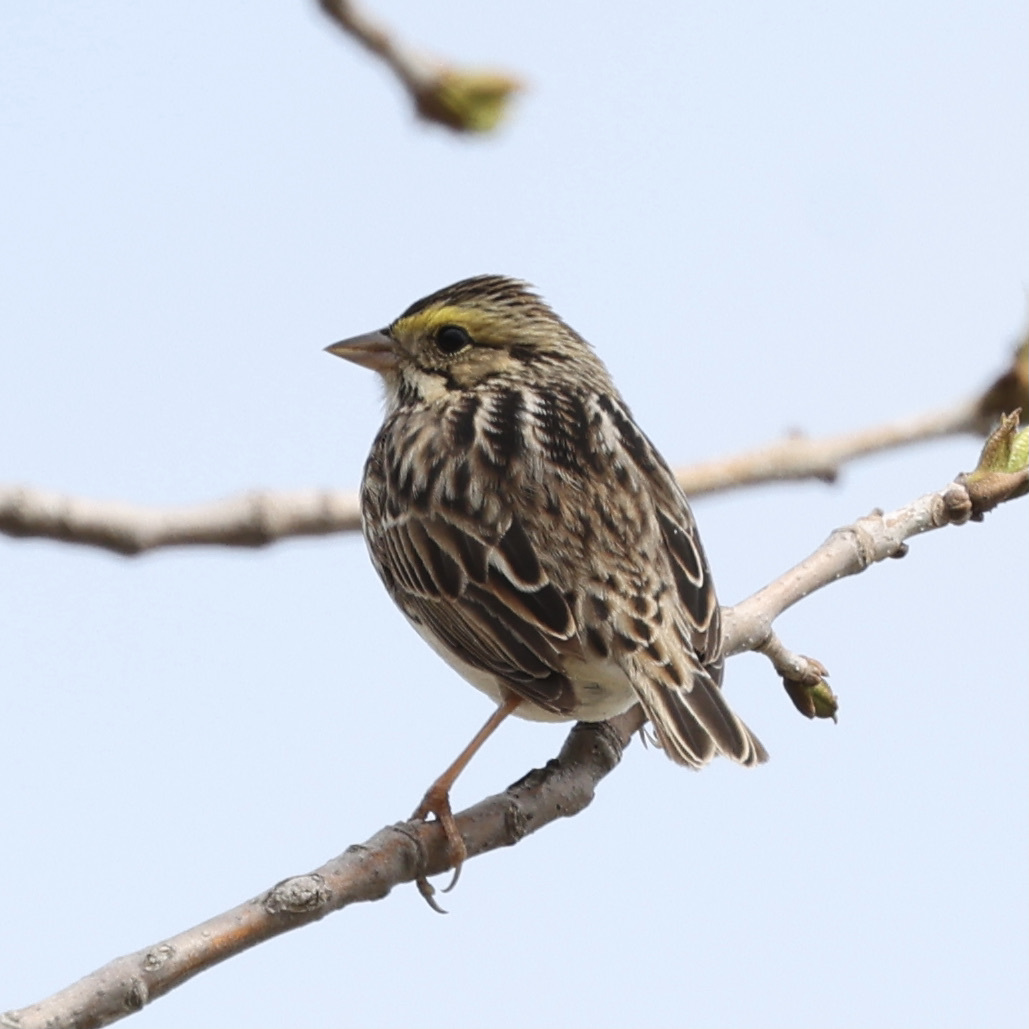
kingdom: Animalia
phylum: Chordata
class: Aves
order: Passeriformes
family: Passerellidae
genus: Passerculus
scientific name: Passerculus sandwichensis
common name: Savannah sparrow
